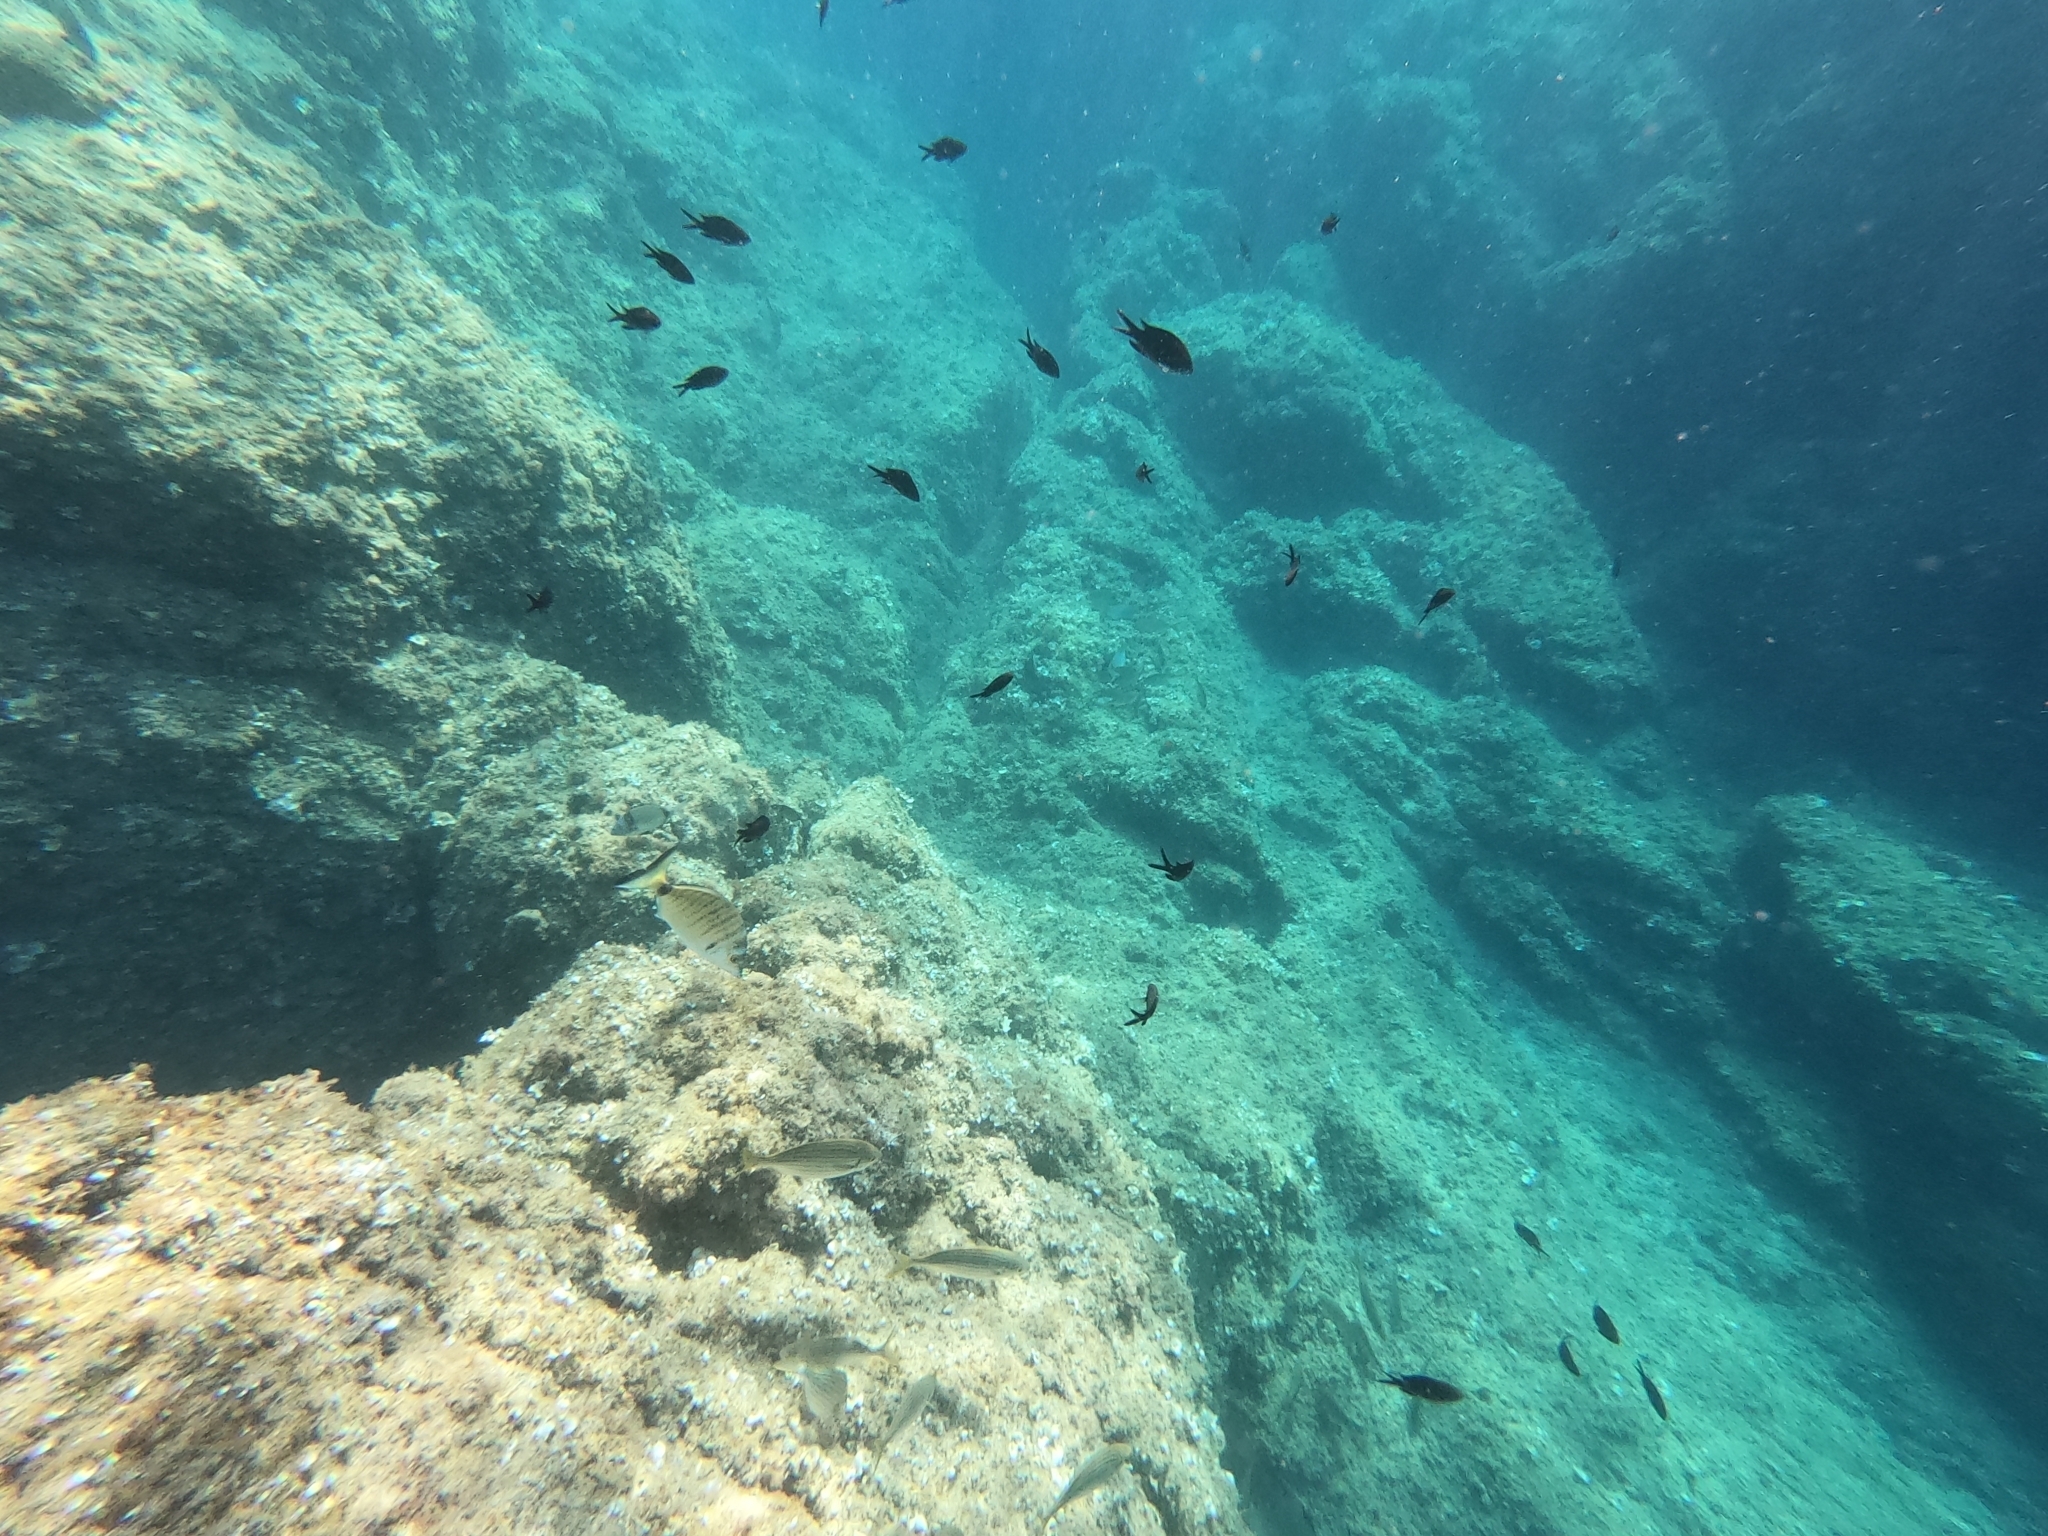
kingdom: Animalia
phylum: Chordata
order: Perciformes
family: Pomacentridae
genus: Chromis
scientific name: Chromis chromis
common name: Damselfish
